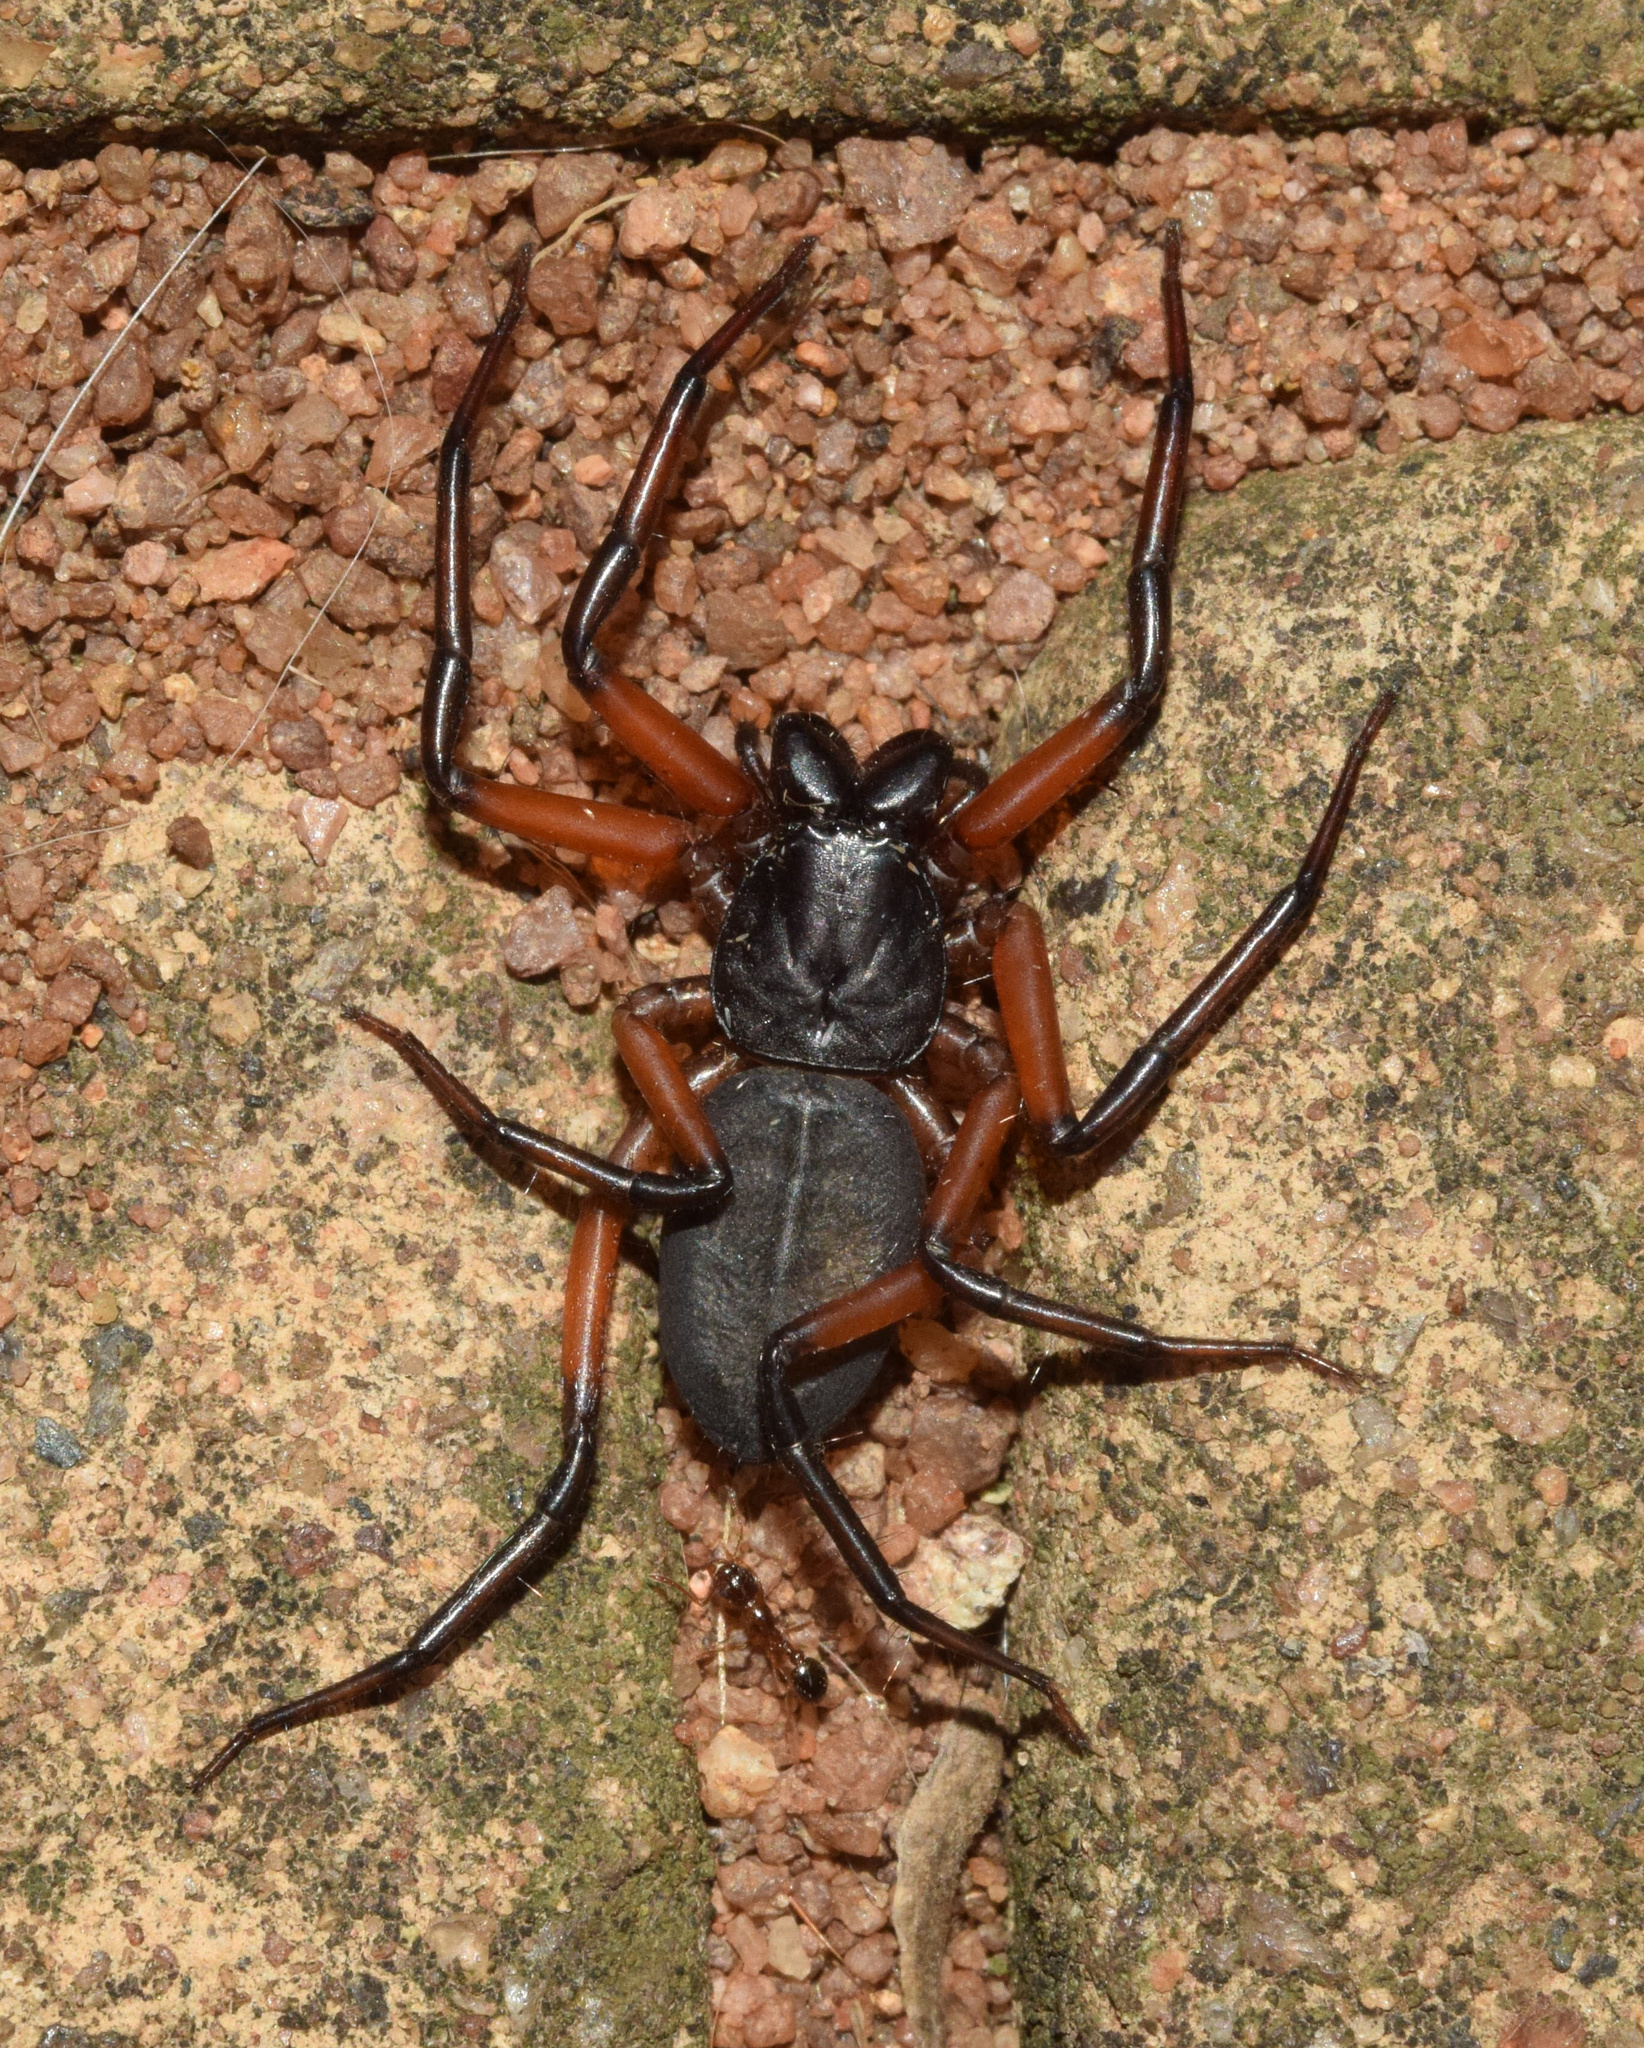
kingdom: Animalia
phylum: Arthropoda
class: Arachnida
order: Araneae
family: Trochanteriidae
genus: Platyoides
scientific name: Platyoides walteri
